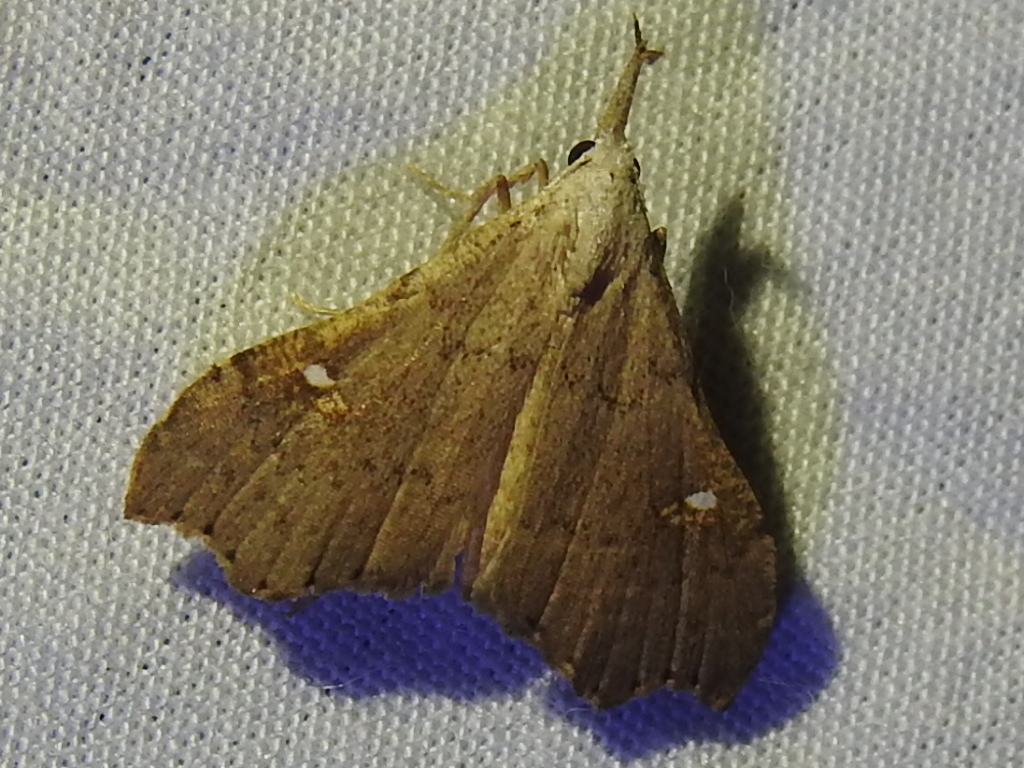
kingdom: Animalia
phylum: Arthropoda
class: Insecta
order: Lepidoptera
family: Erebidae
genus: Redectis
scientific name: Redectis vitrea
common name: White-spotted redectis
